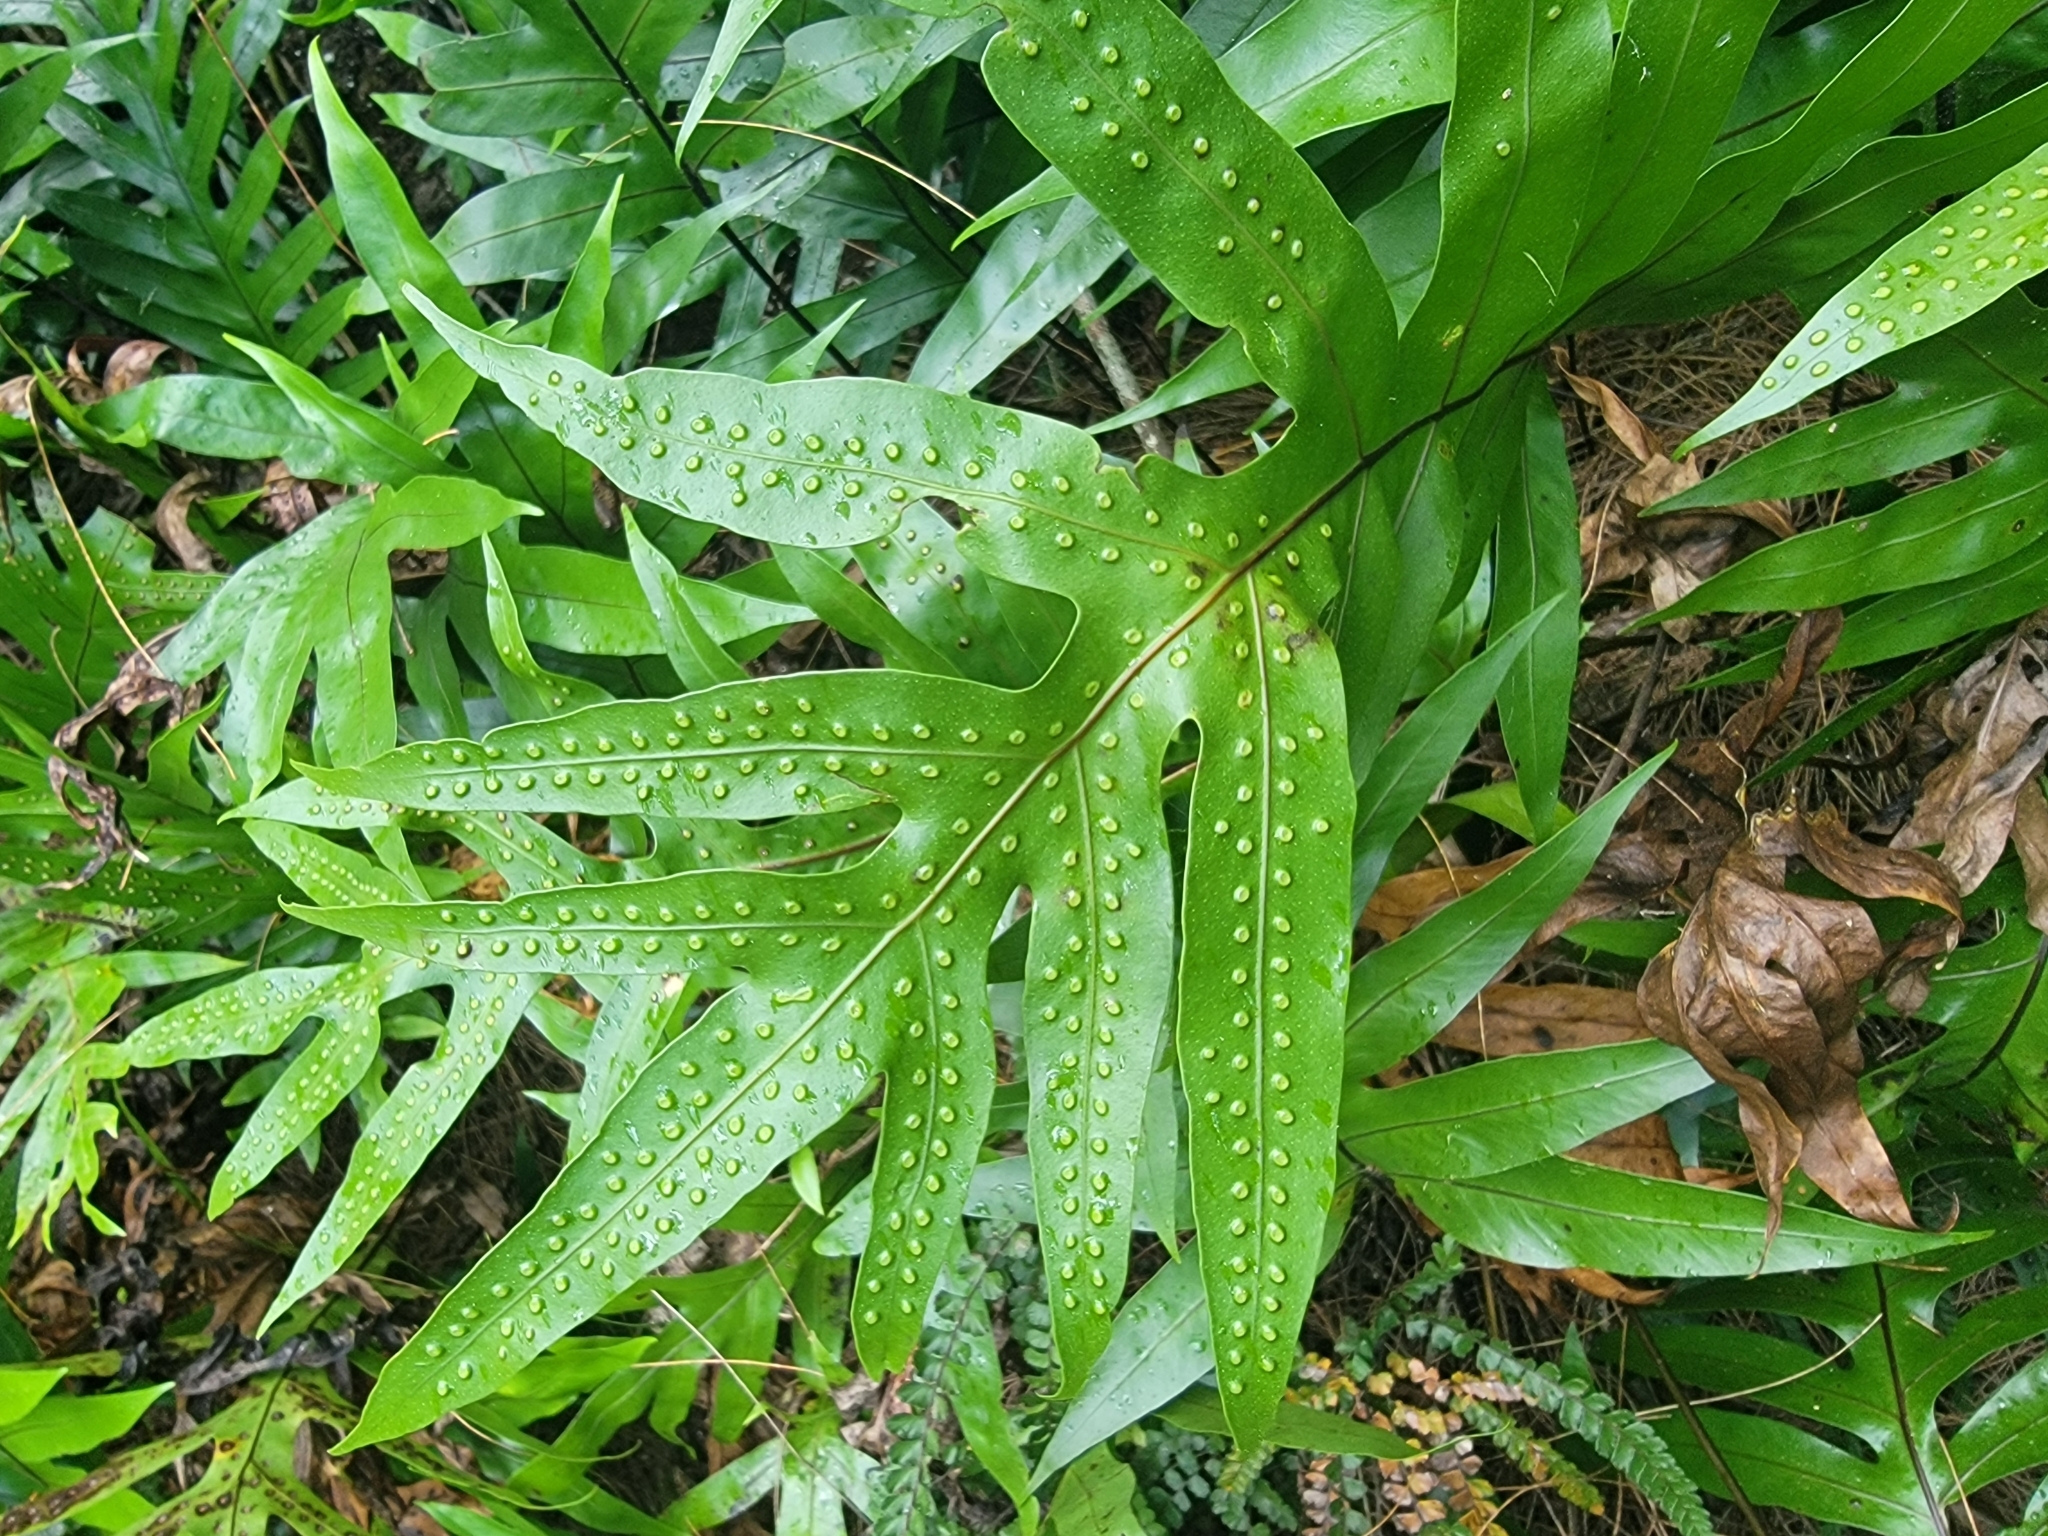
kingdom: Plantae
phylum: Tracheophyta
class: Polypodiopsida
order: Polypodiales
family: Polypodiaceae
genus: Microsorum
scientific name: Microsorum grossum
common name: Musk fern
